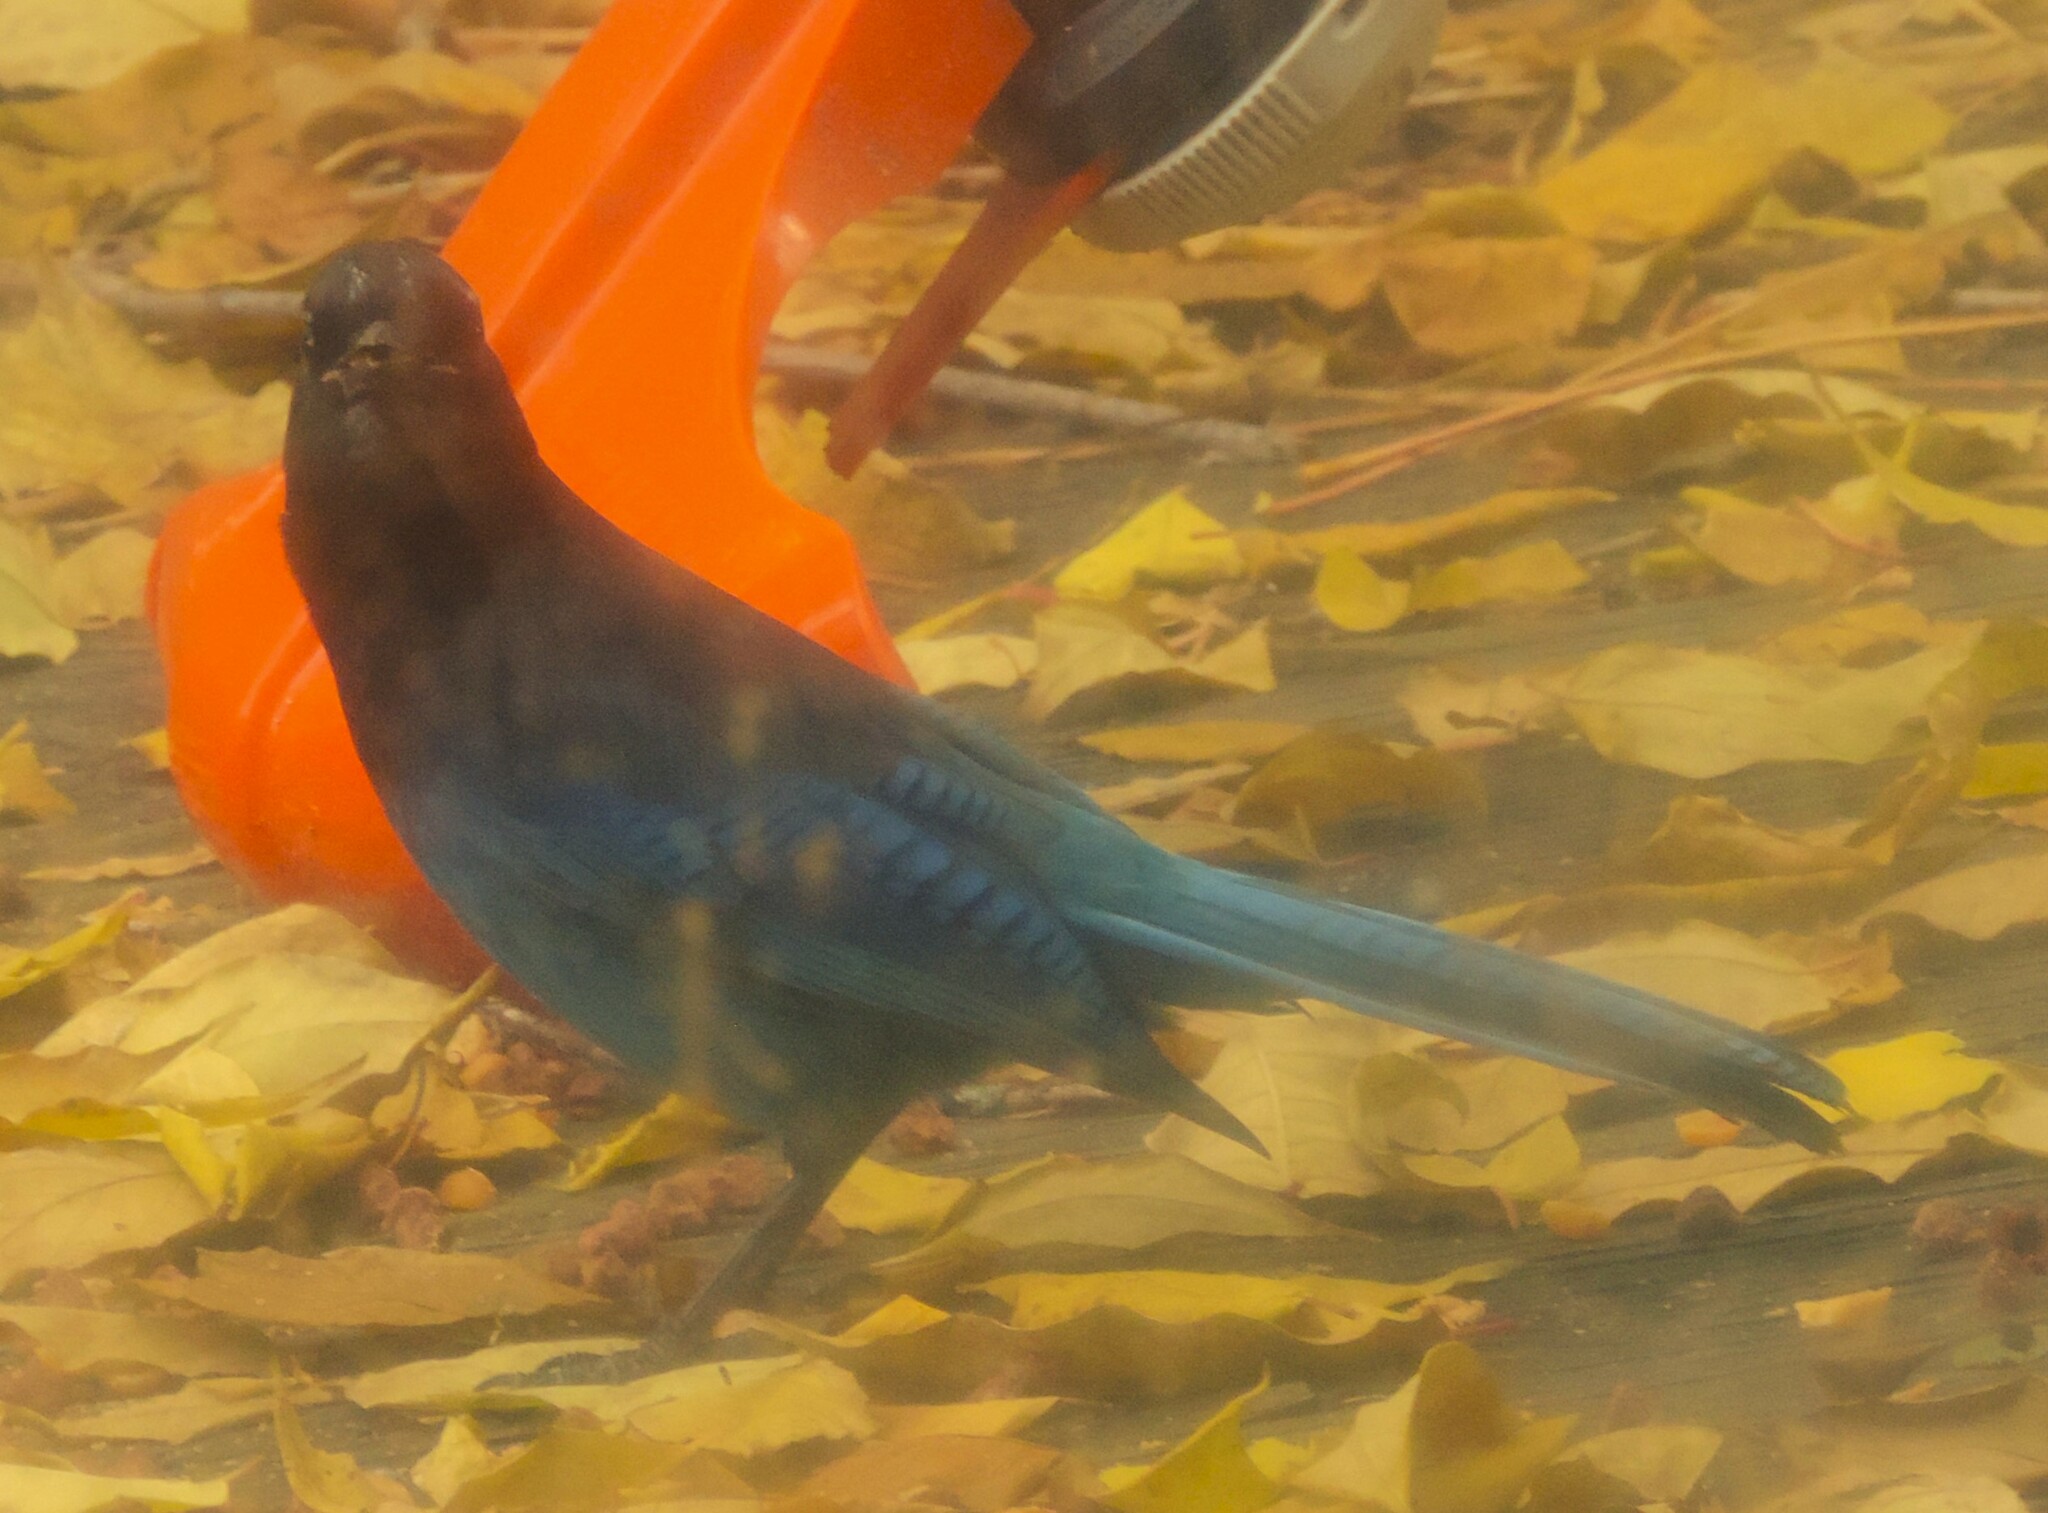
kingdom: Animalia
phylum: Chordata
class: Aves
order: Passeriformes
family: Corvidae
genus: Cyanocitta
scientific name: Cyanocitta stelleri
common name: Steller's jay
